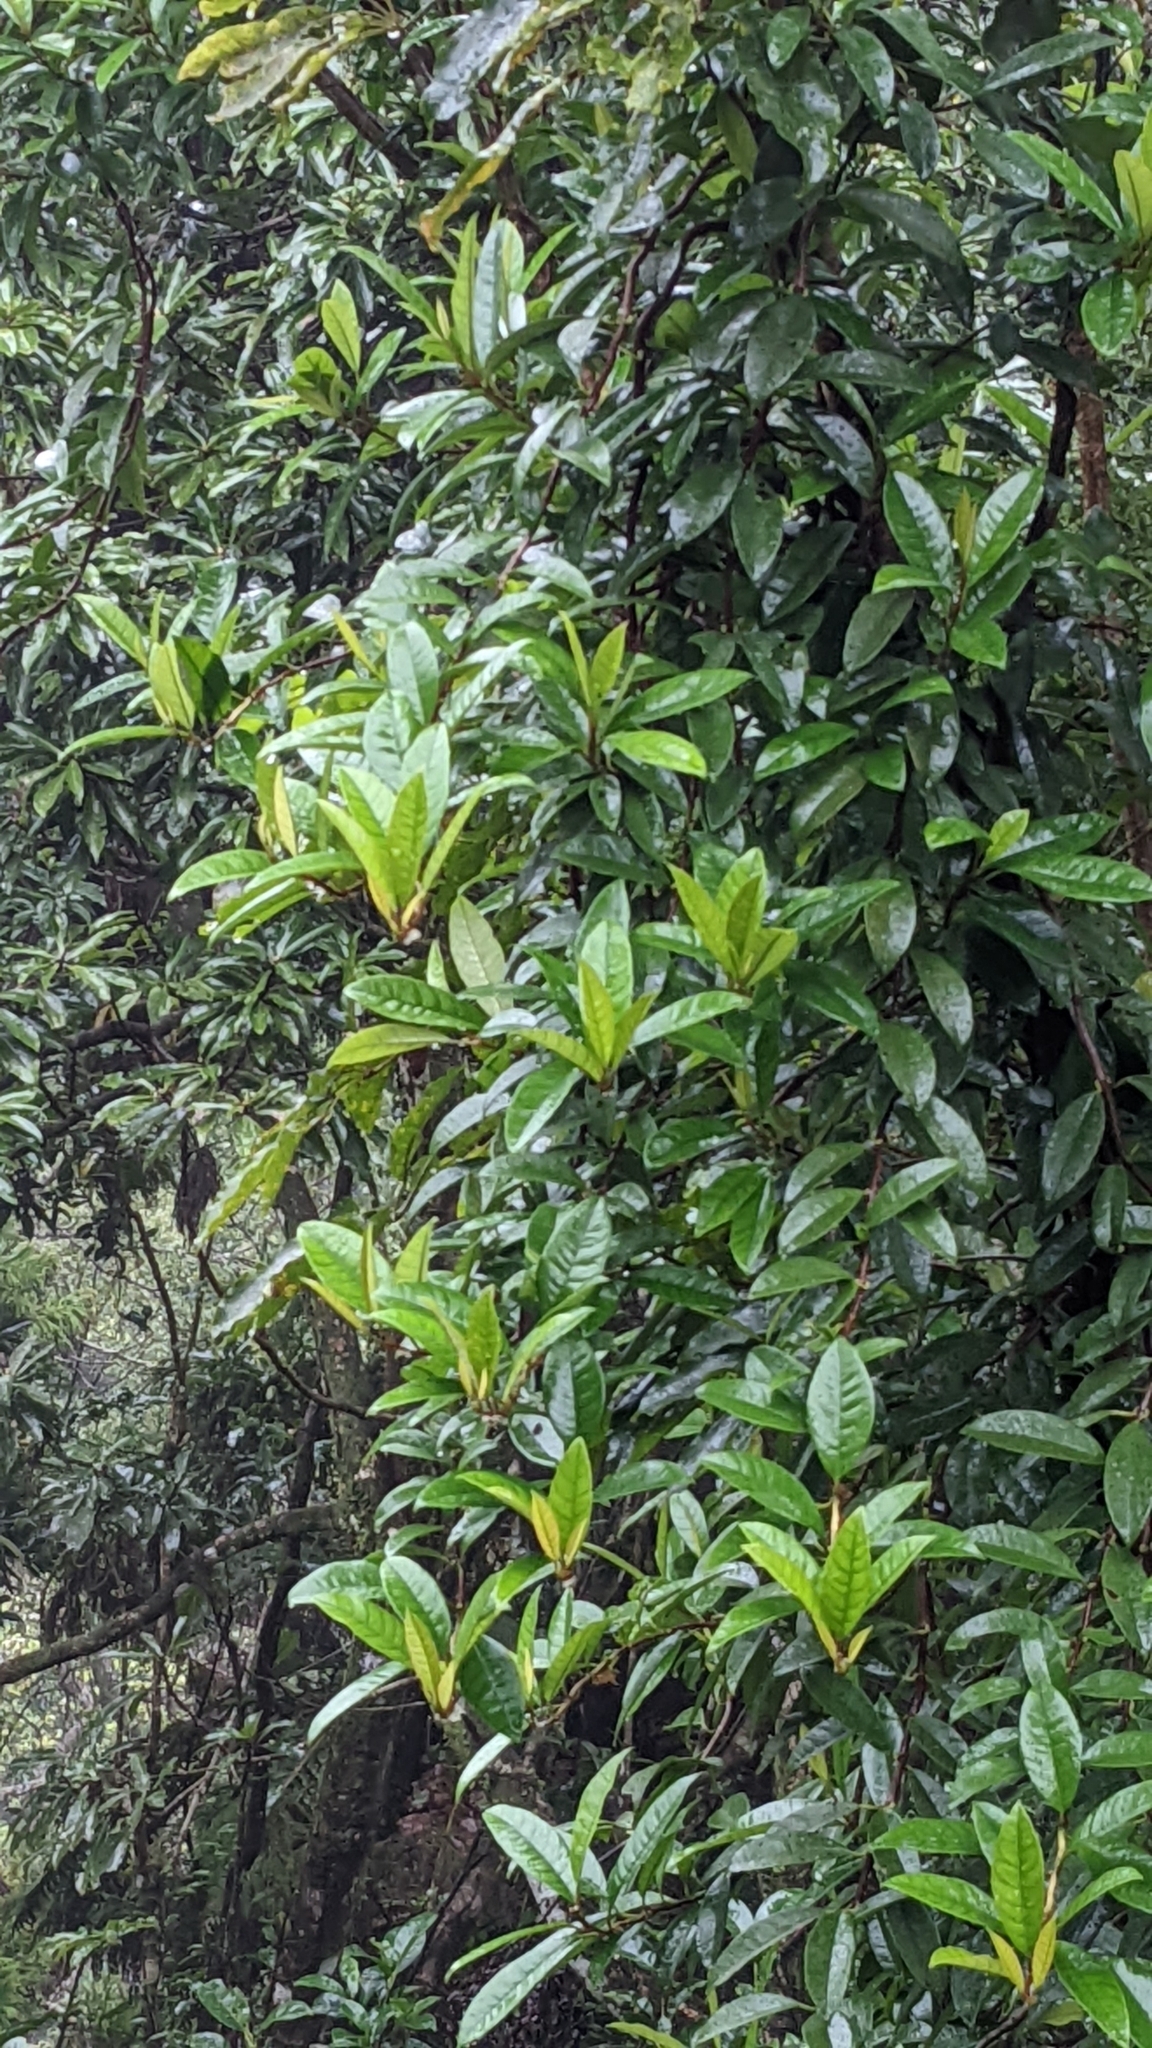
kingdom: Plantae
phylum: Tracheophyta
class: Magnoliopsida
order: Cornales
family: Hydrangeaceae
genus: Hydrangea
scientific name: Hydrangea viburnoides
